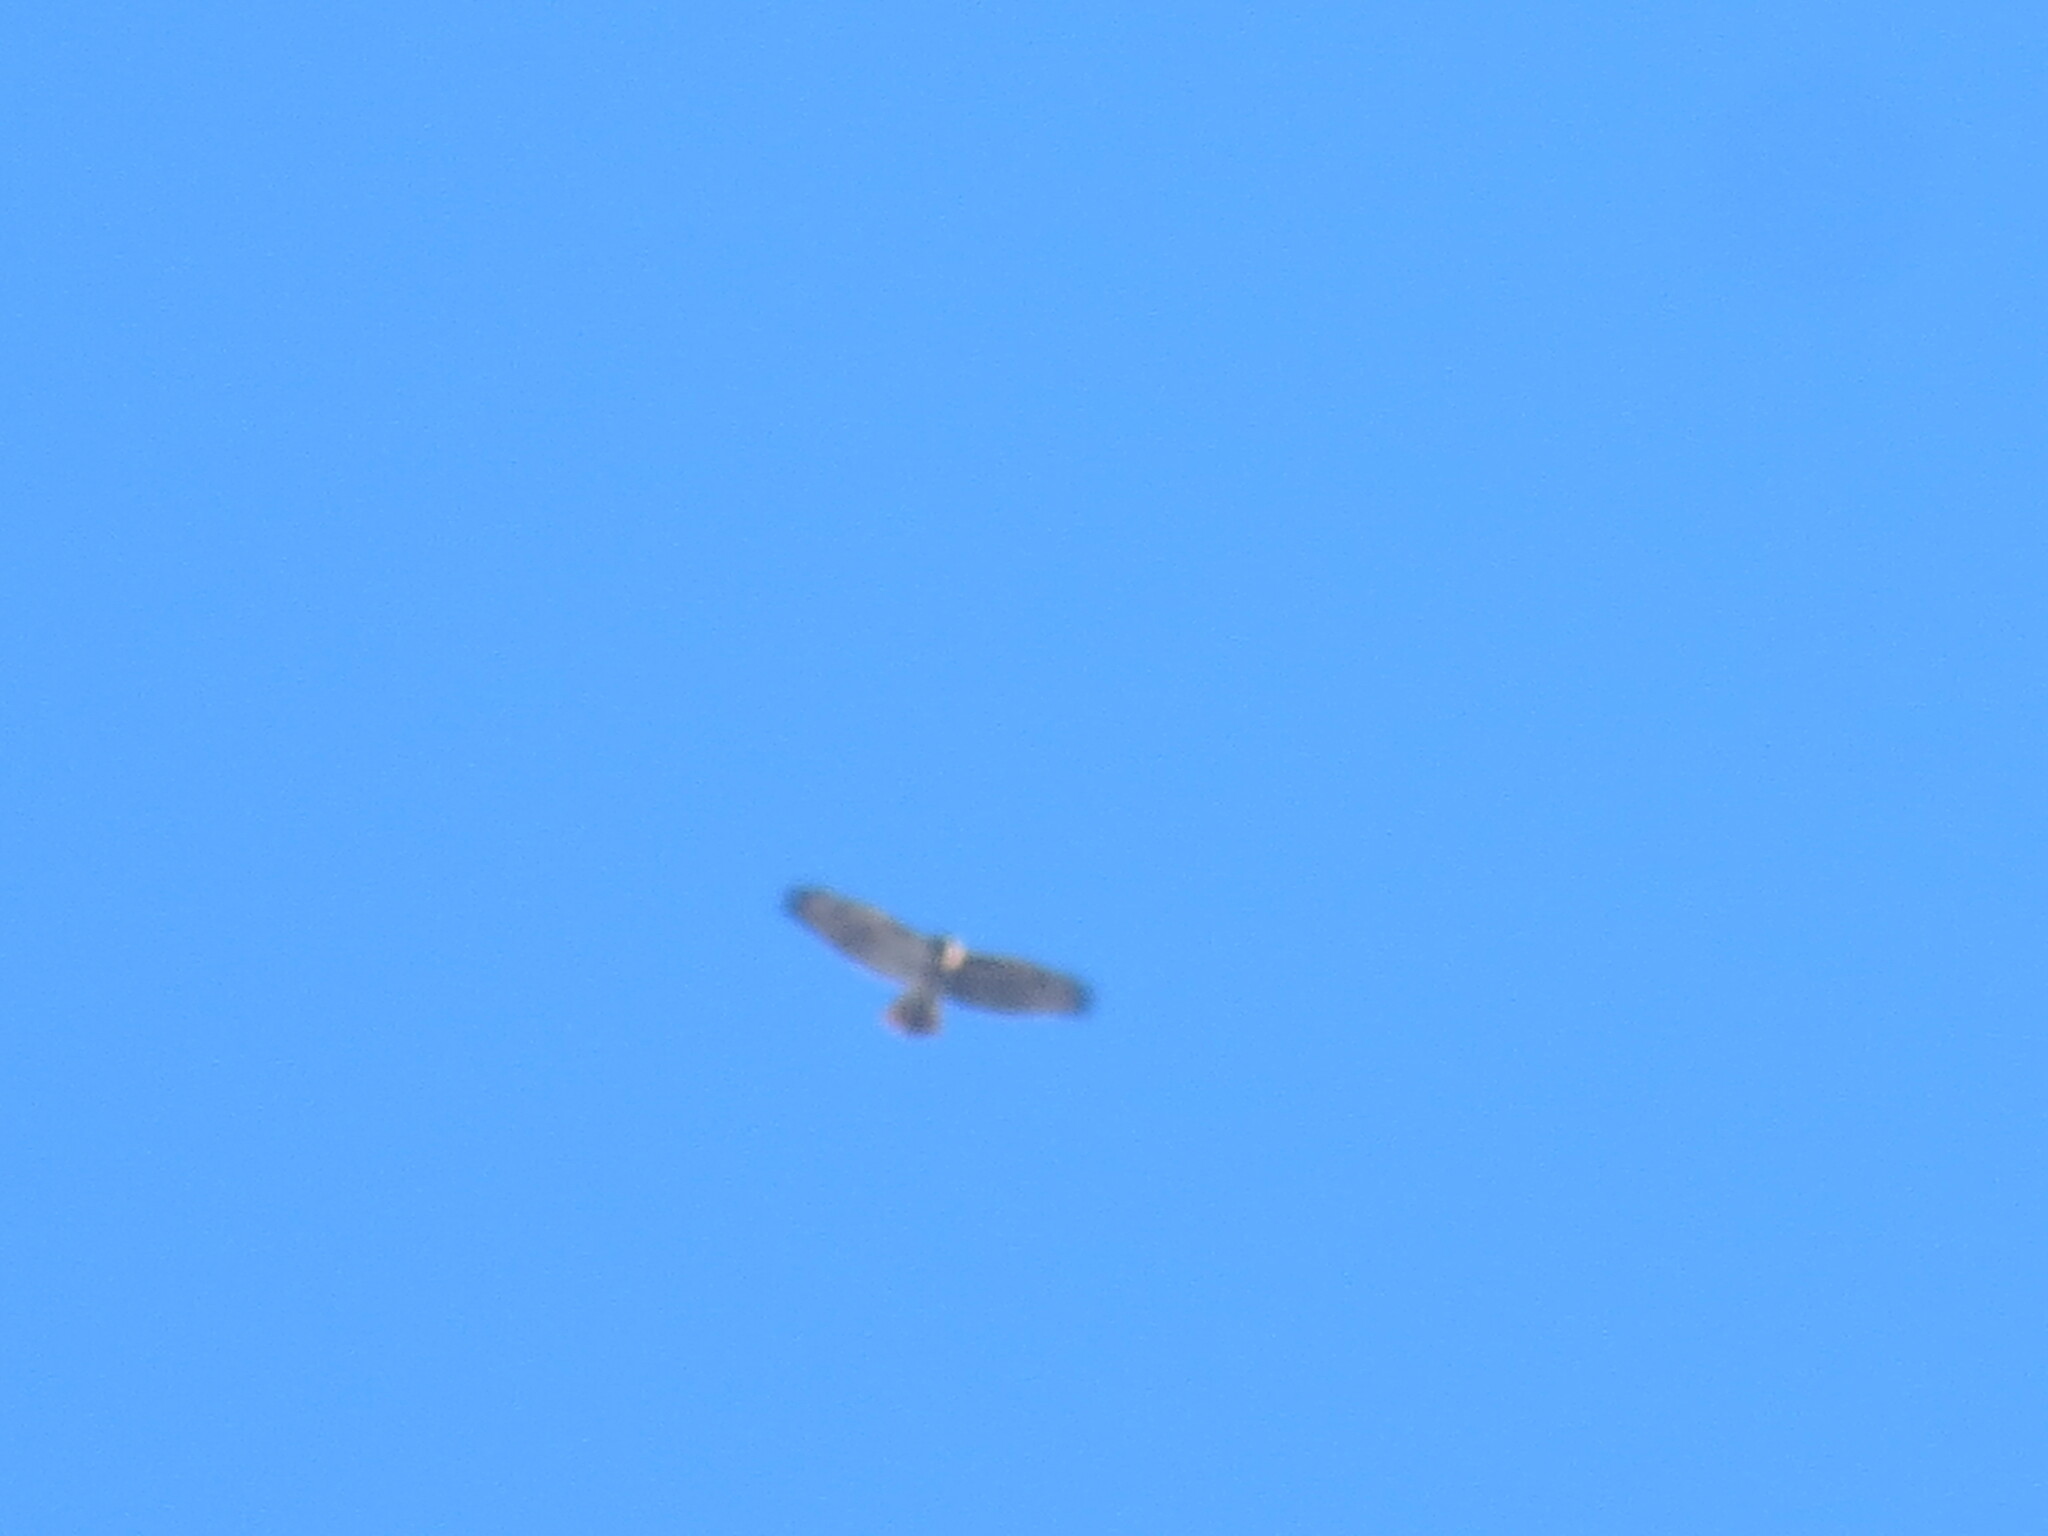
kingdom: Animalia
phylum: Chordata
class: Aves
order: Accipitriformes
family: Accipitridae
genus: Buteo
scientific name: Buteo jamaicensis
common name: Red-tailed hawk
